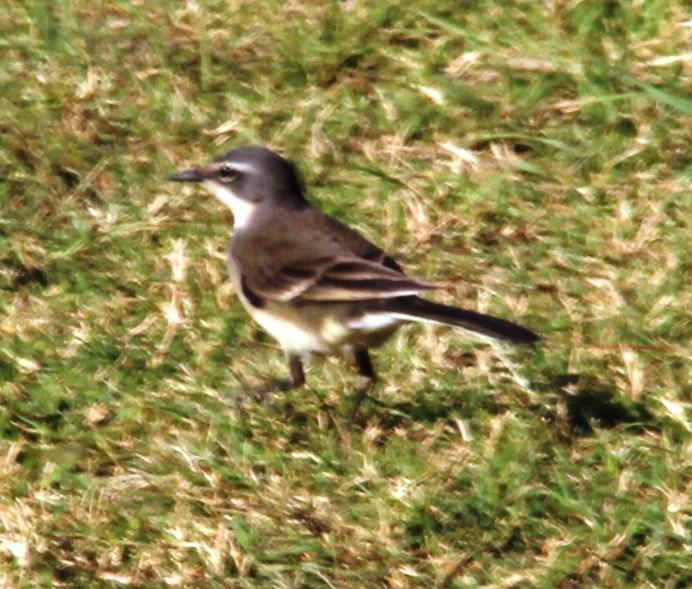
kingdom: Animalia
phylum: Chordata
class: Aves
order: Passeriformes
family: Motacillidae
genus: Motacilla
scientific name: Motacilla capensis
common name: Cape wagtail
